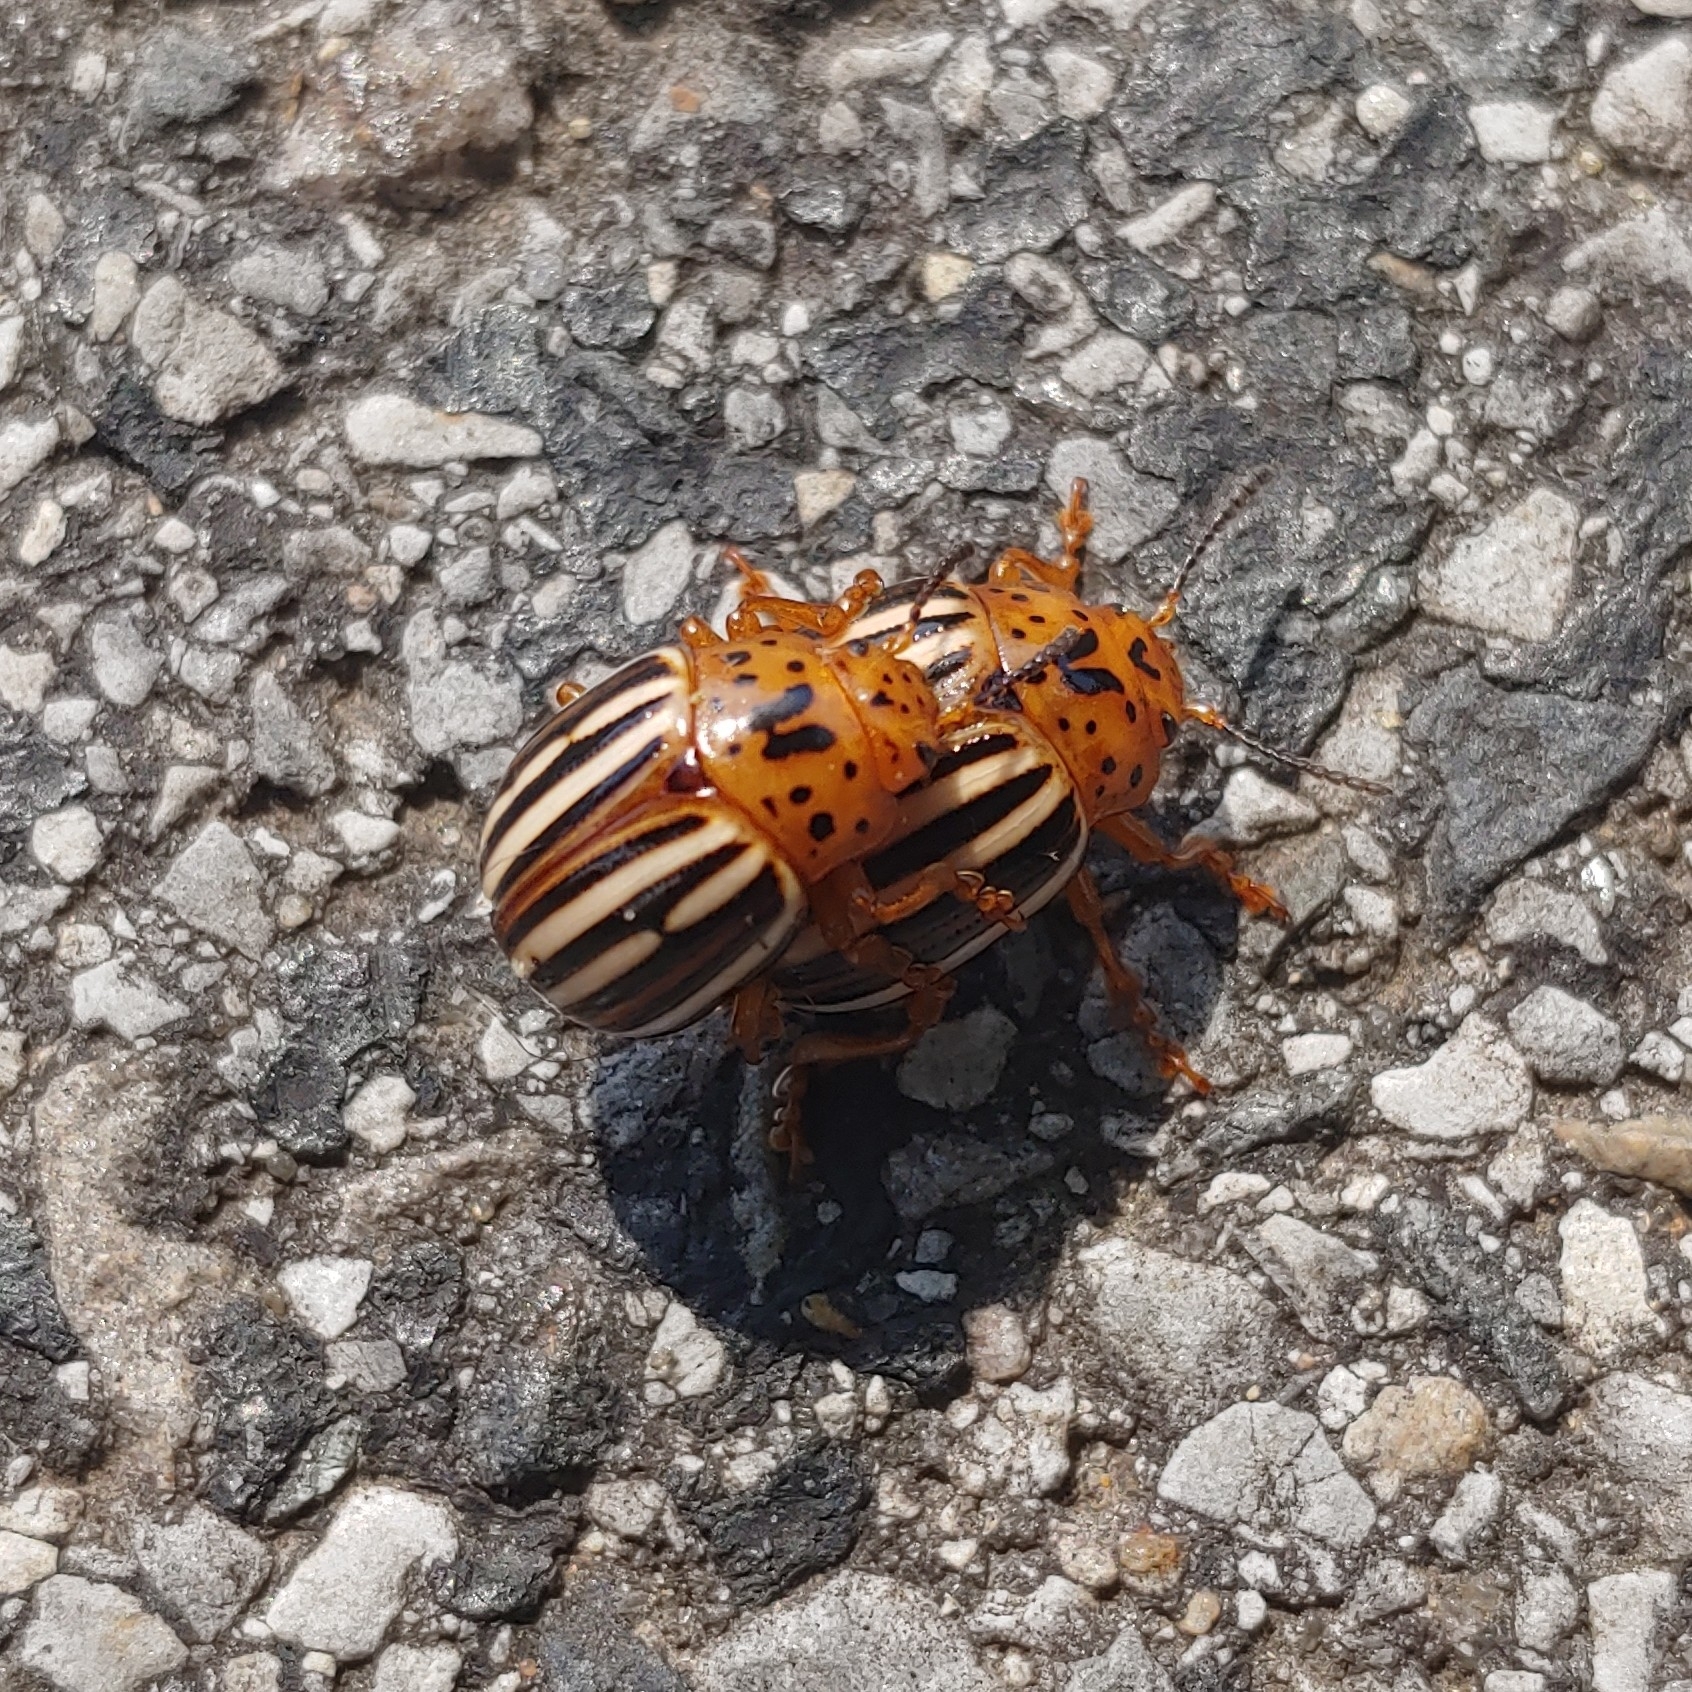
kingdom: Animalia
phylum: Arthropoda
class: Insecta
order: Coleoptera
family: Chrysomelidae
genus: Leptinotarsa
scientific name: Leptinotarsa juncta
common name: False potato beetle
